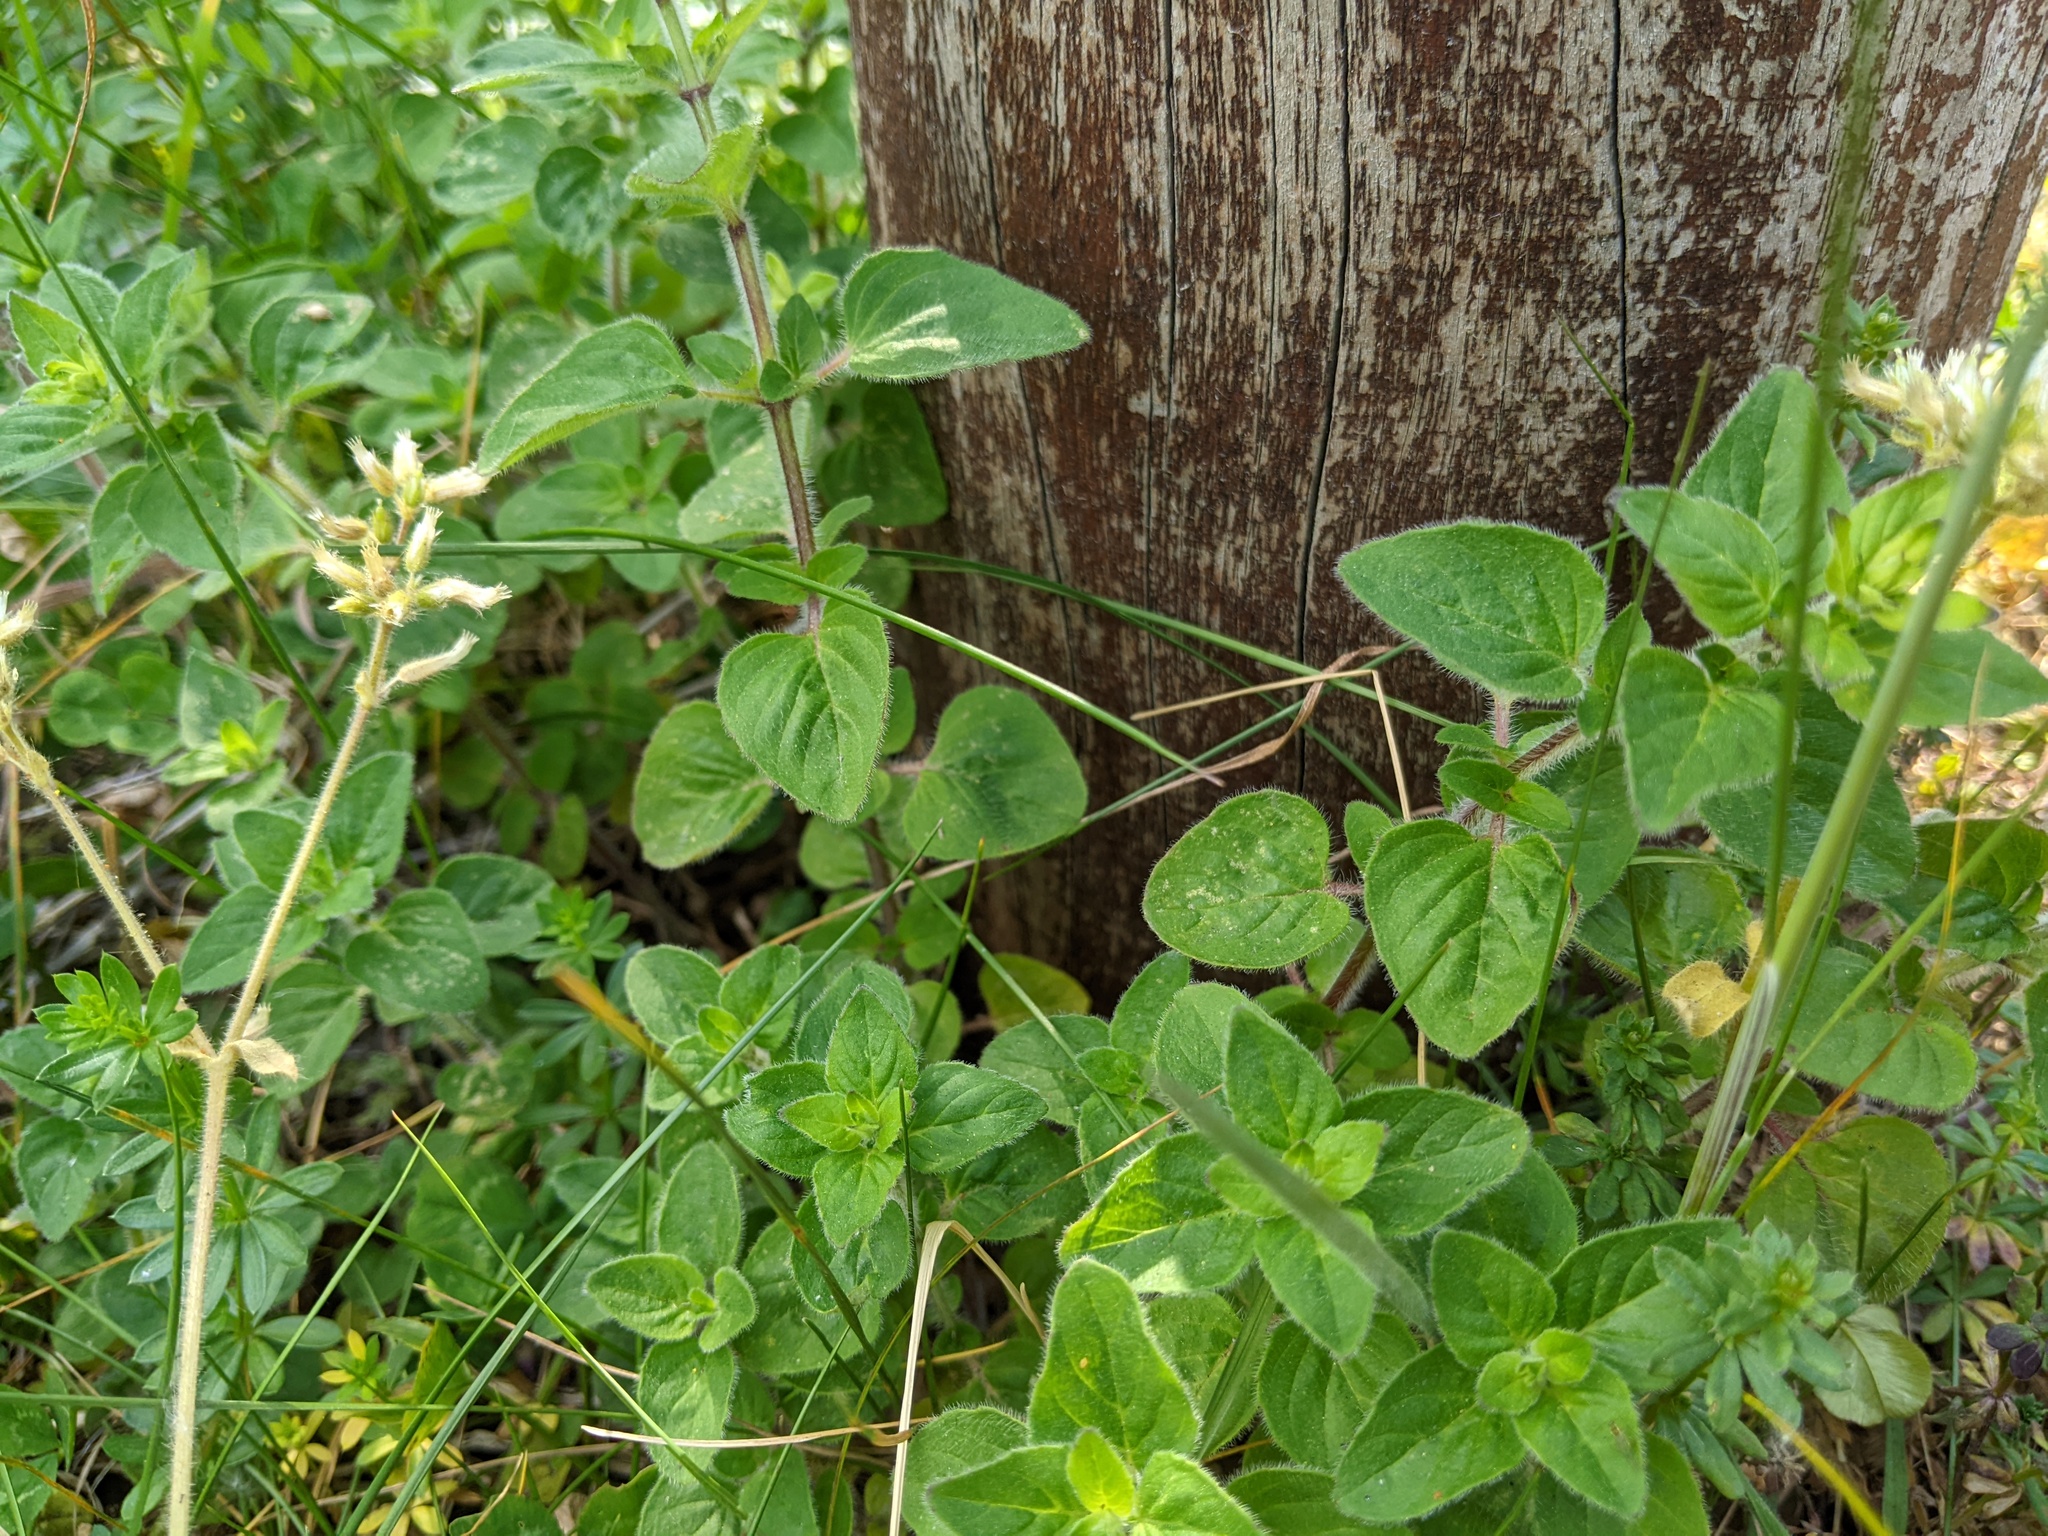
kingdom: Plantae
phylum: Tracheophyta
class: Magnoliopsida
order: Lamiales
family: Lamiaceae
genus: Origanum
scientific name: Origanum vulgare
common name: Wild marjoram
